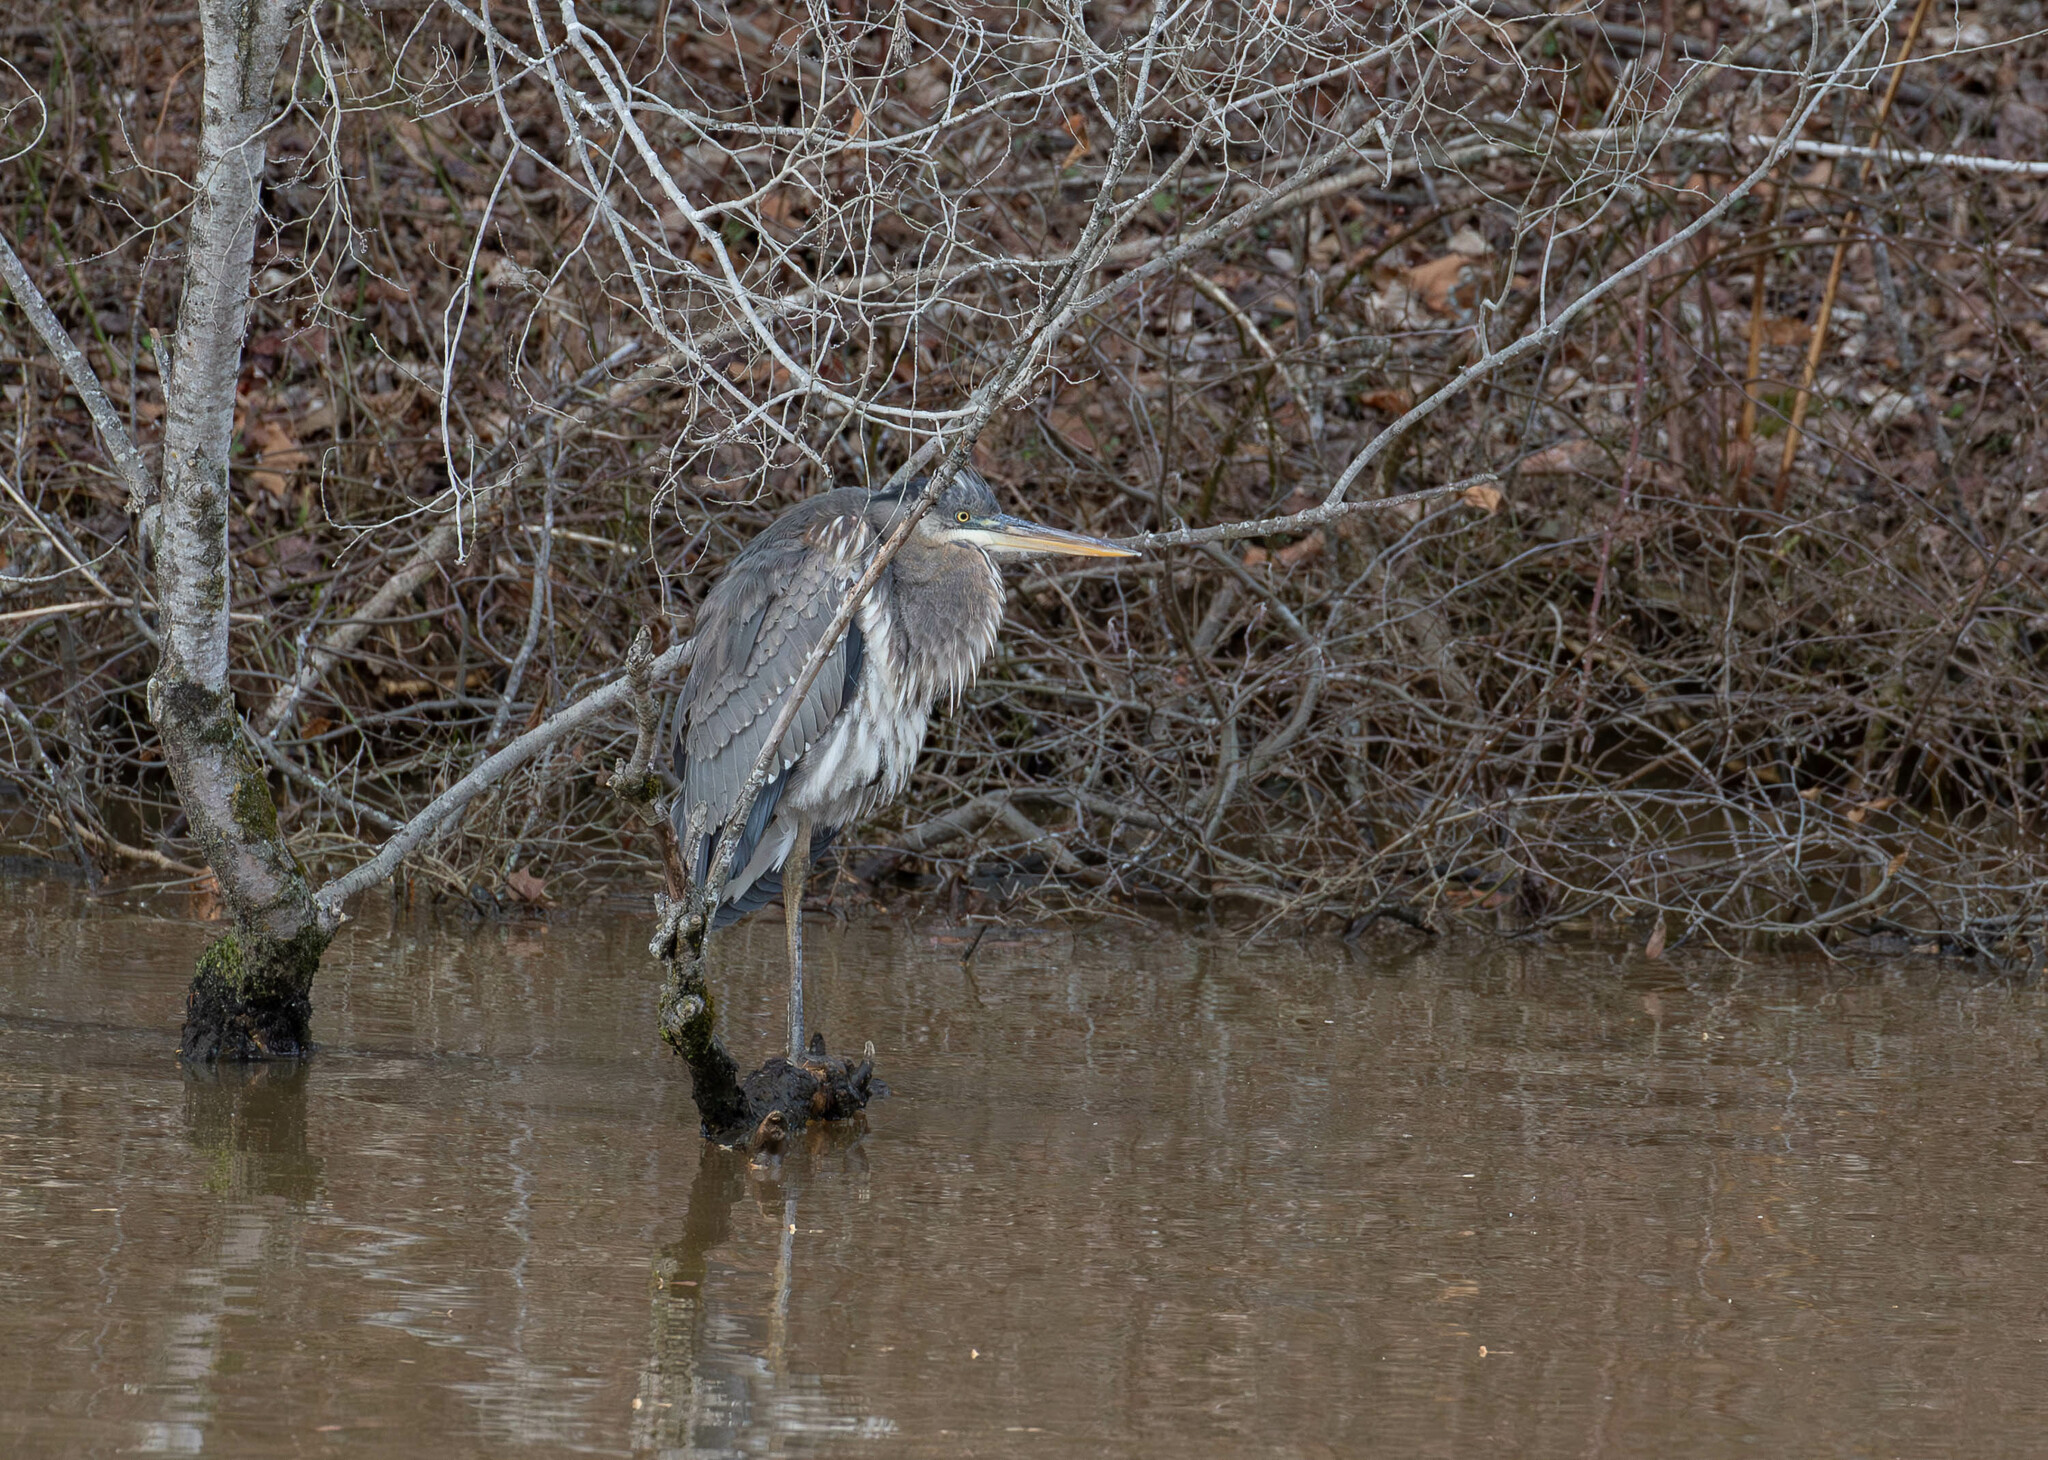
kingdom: Animalia
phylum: Chordata
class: Aves
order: Pelecaniformes
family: Ardeidae
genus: Ardea
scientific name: Ardea herodias
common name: Great blue heron
